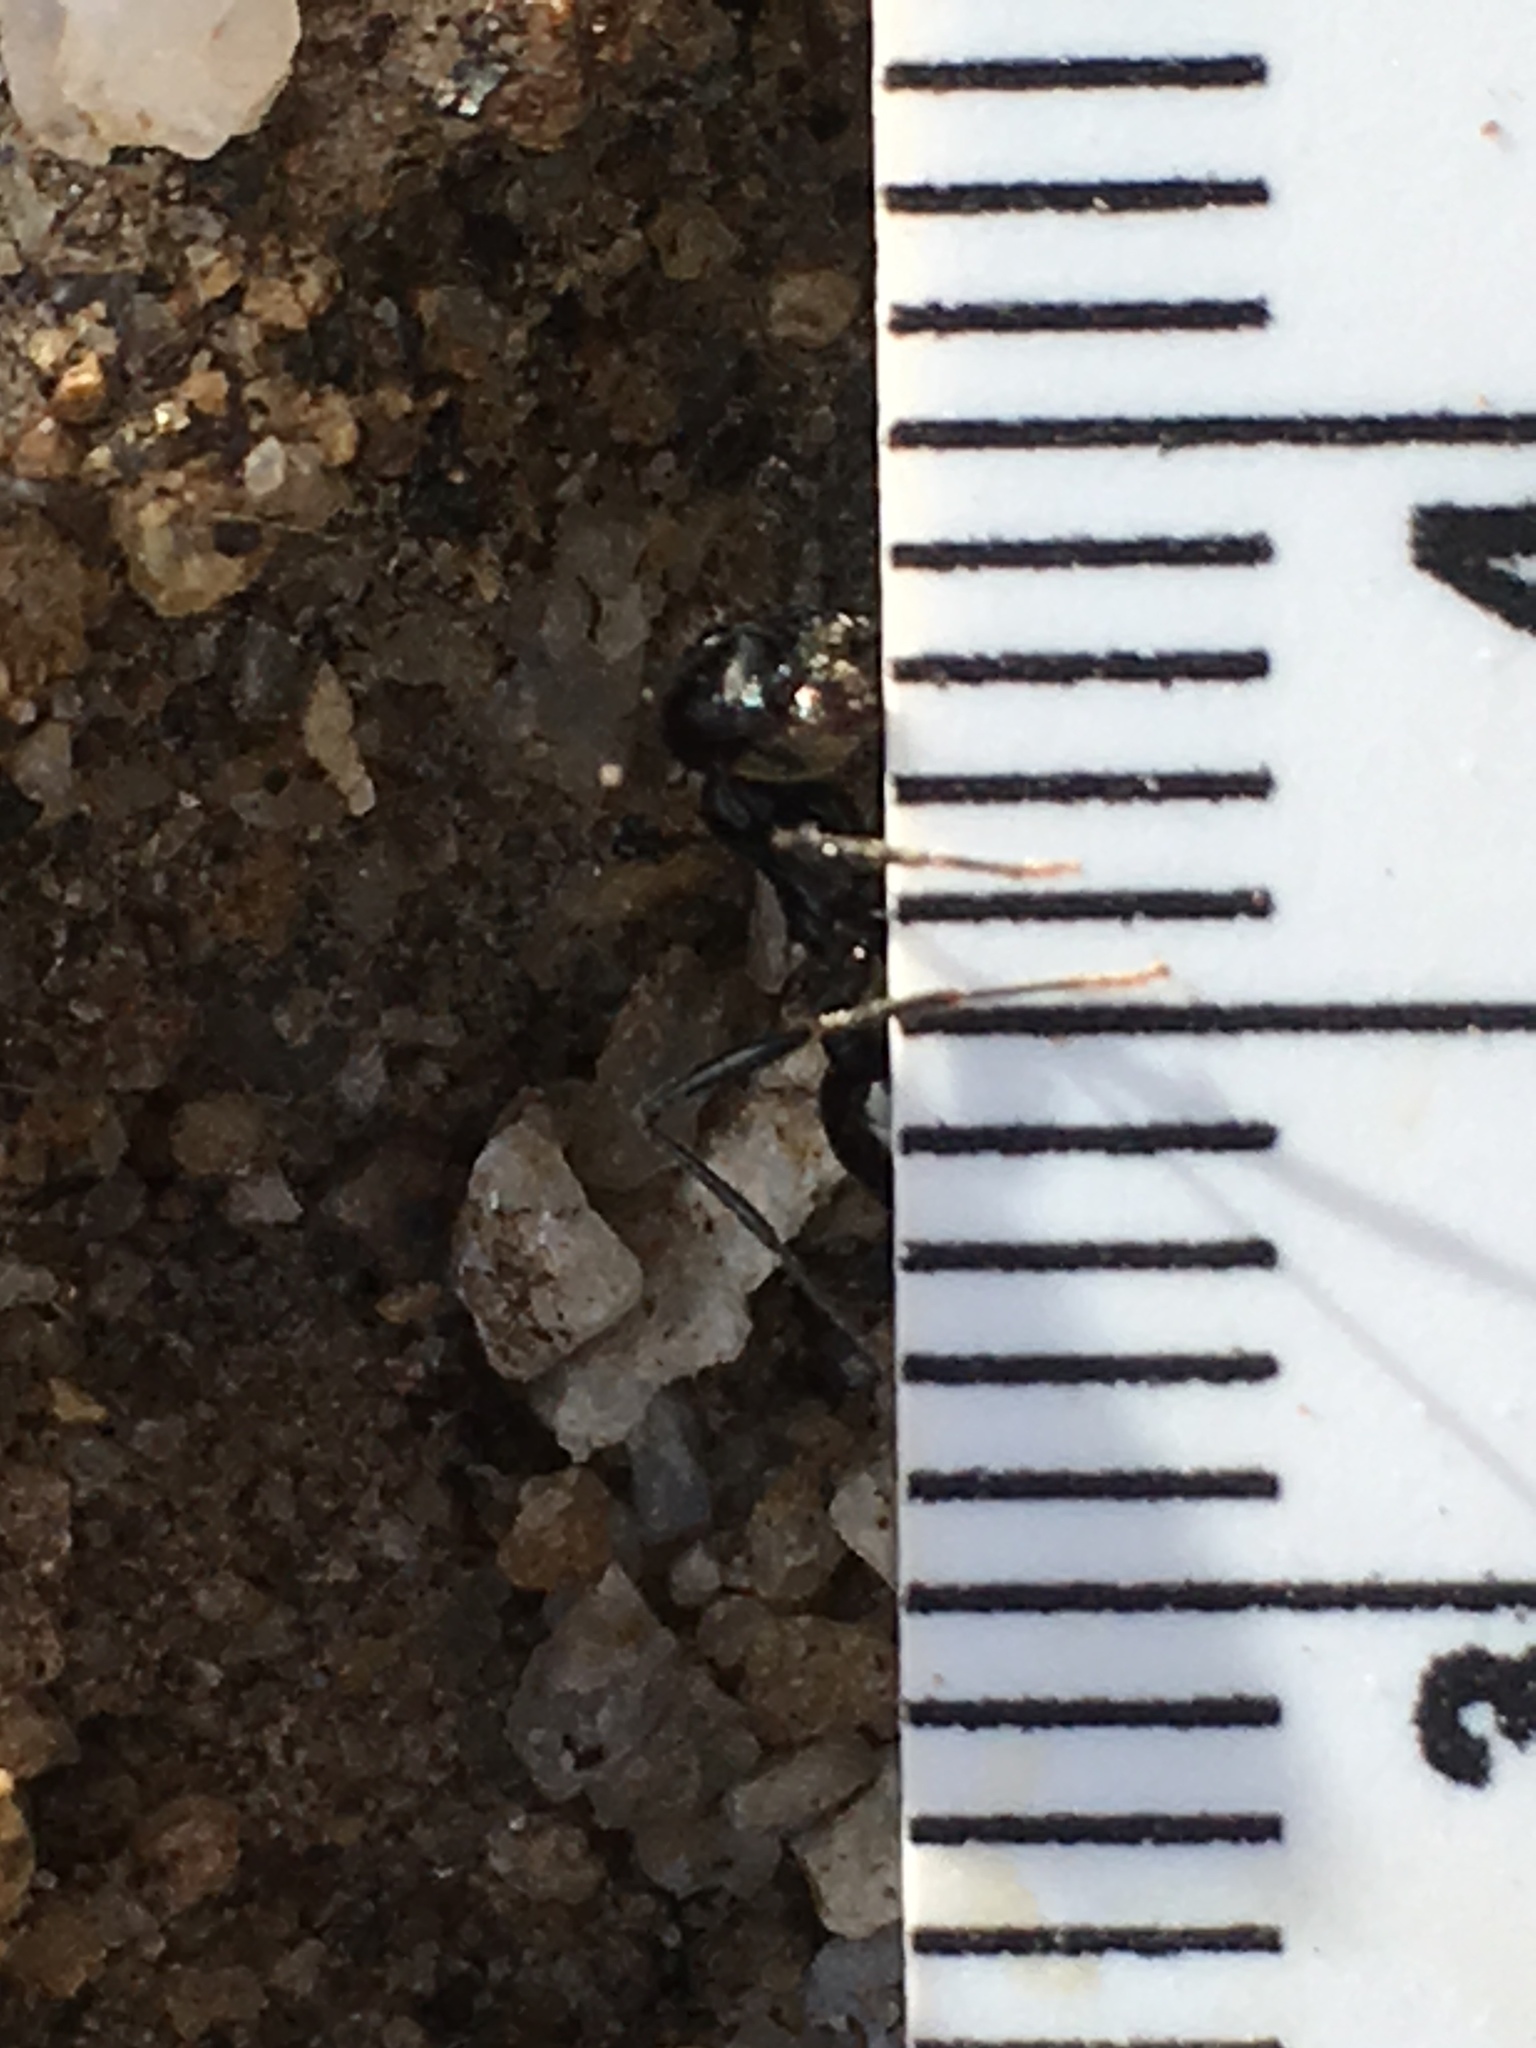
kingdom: Animalia
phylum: Arthropoda
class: Insecta
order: Hymenoptera
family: Formicidae
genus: Messor
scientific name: Messor pergandei
